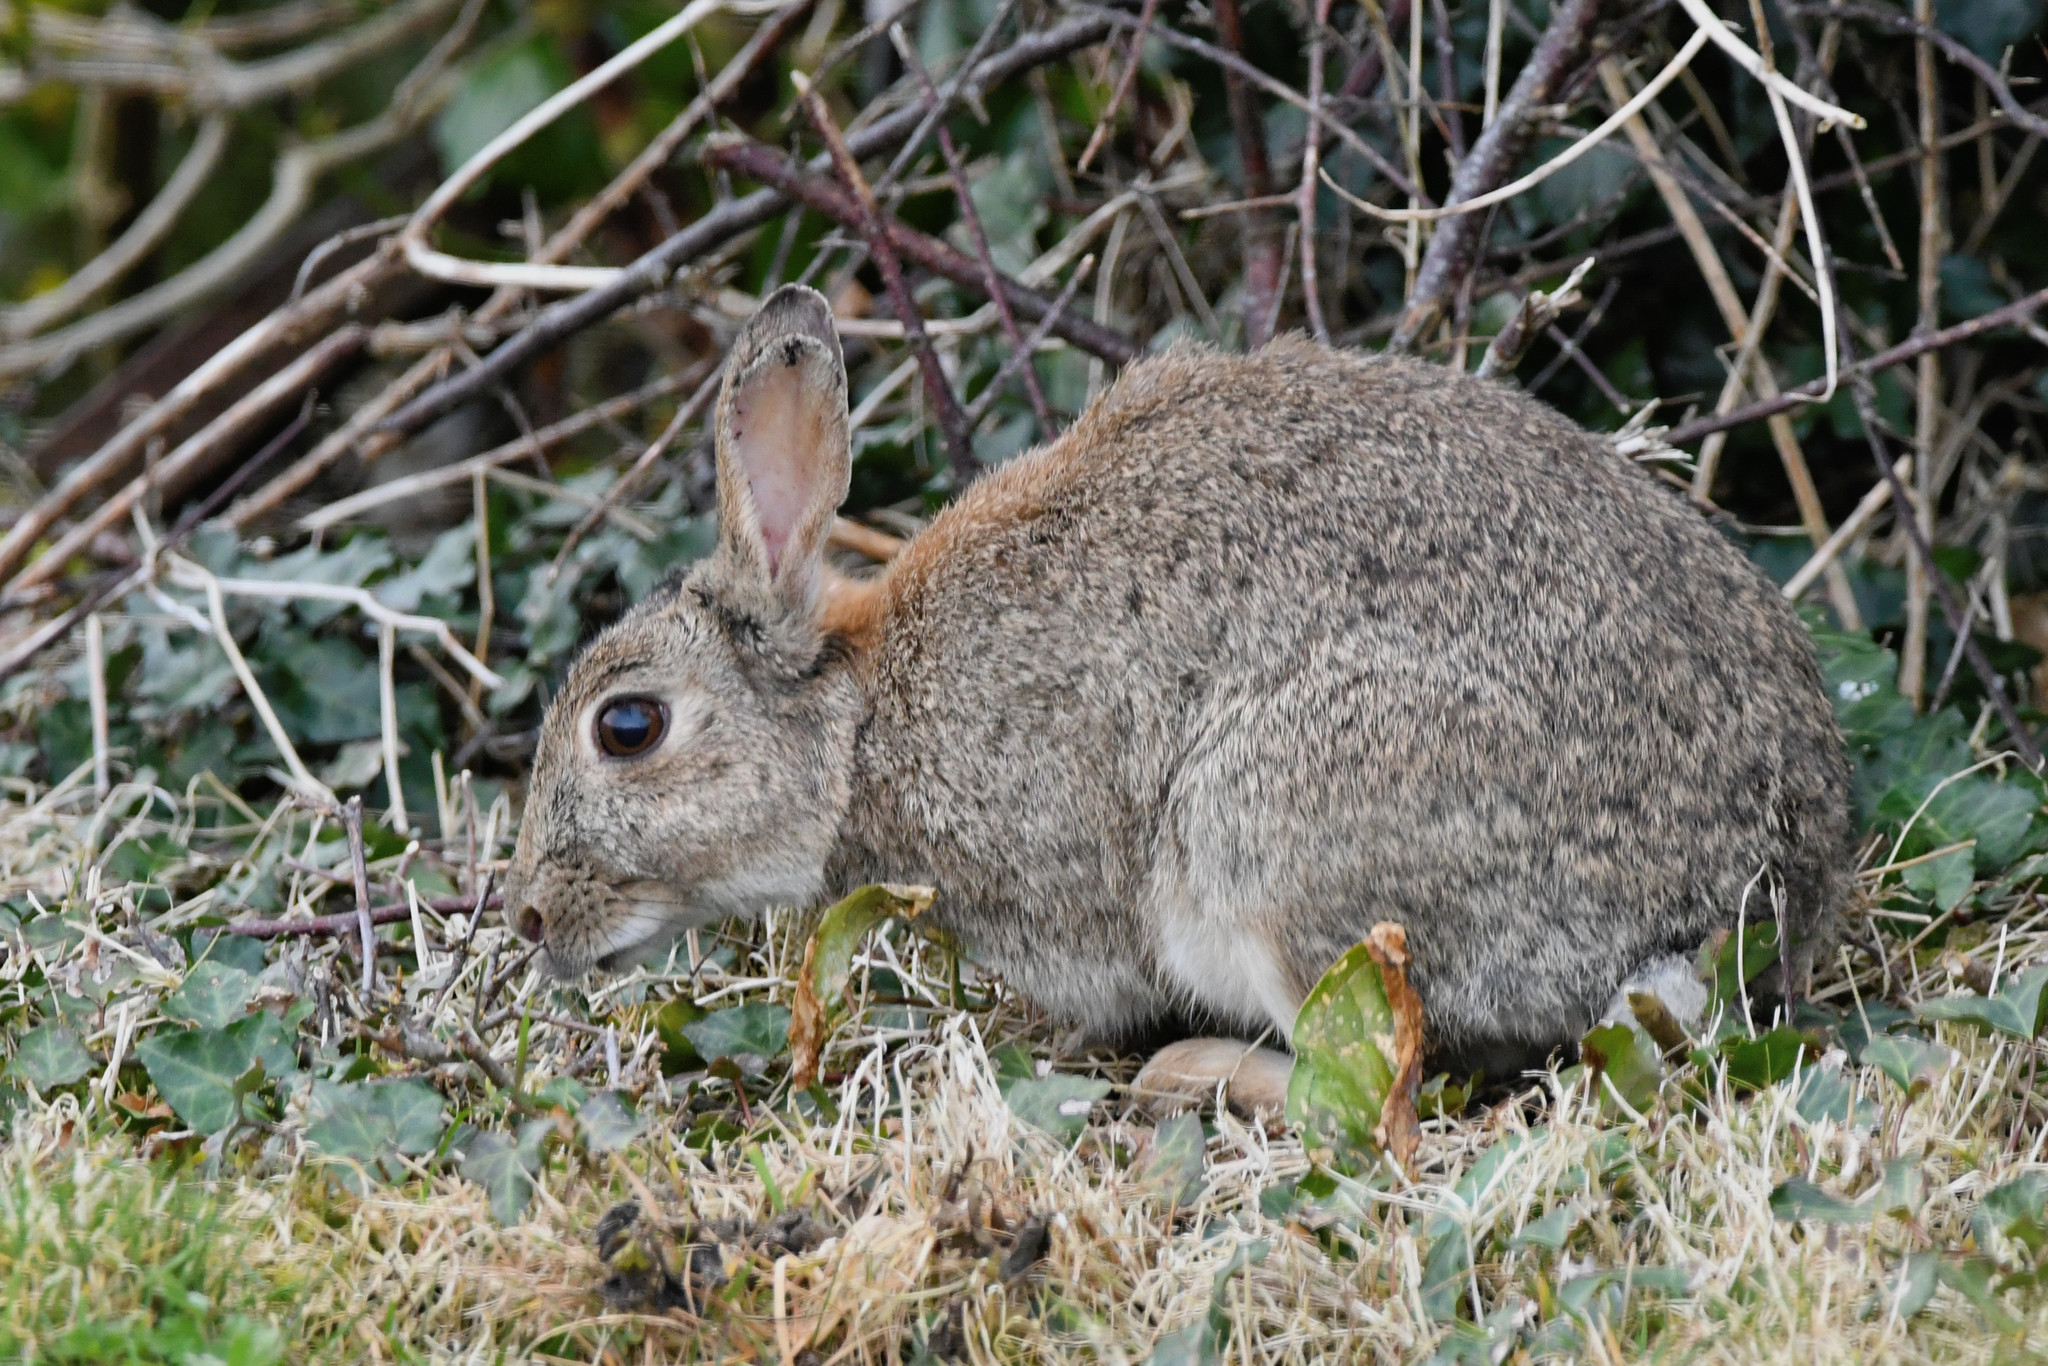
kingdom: Animalia
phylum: Chordata
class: Mammalia
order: Lagomorpha
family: Leporidae
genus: Oryctolagus
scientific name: Oryctolagus cuniculus
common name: European rabbit
